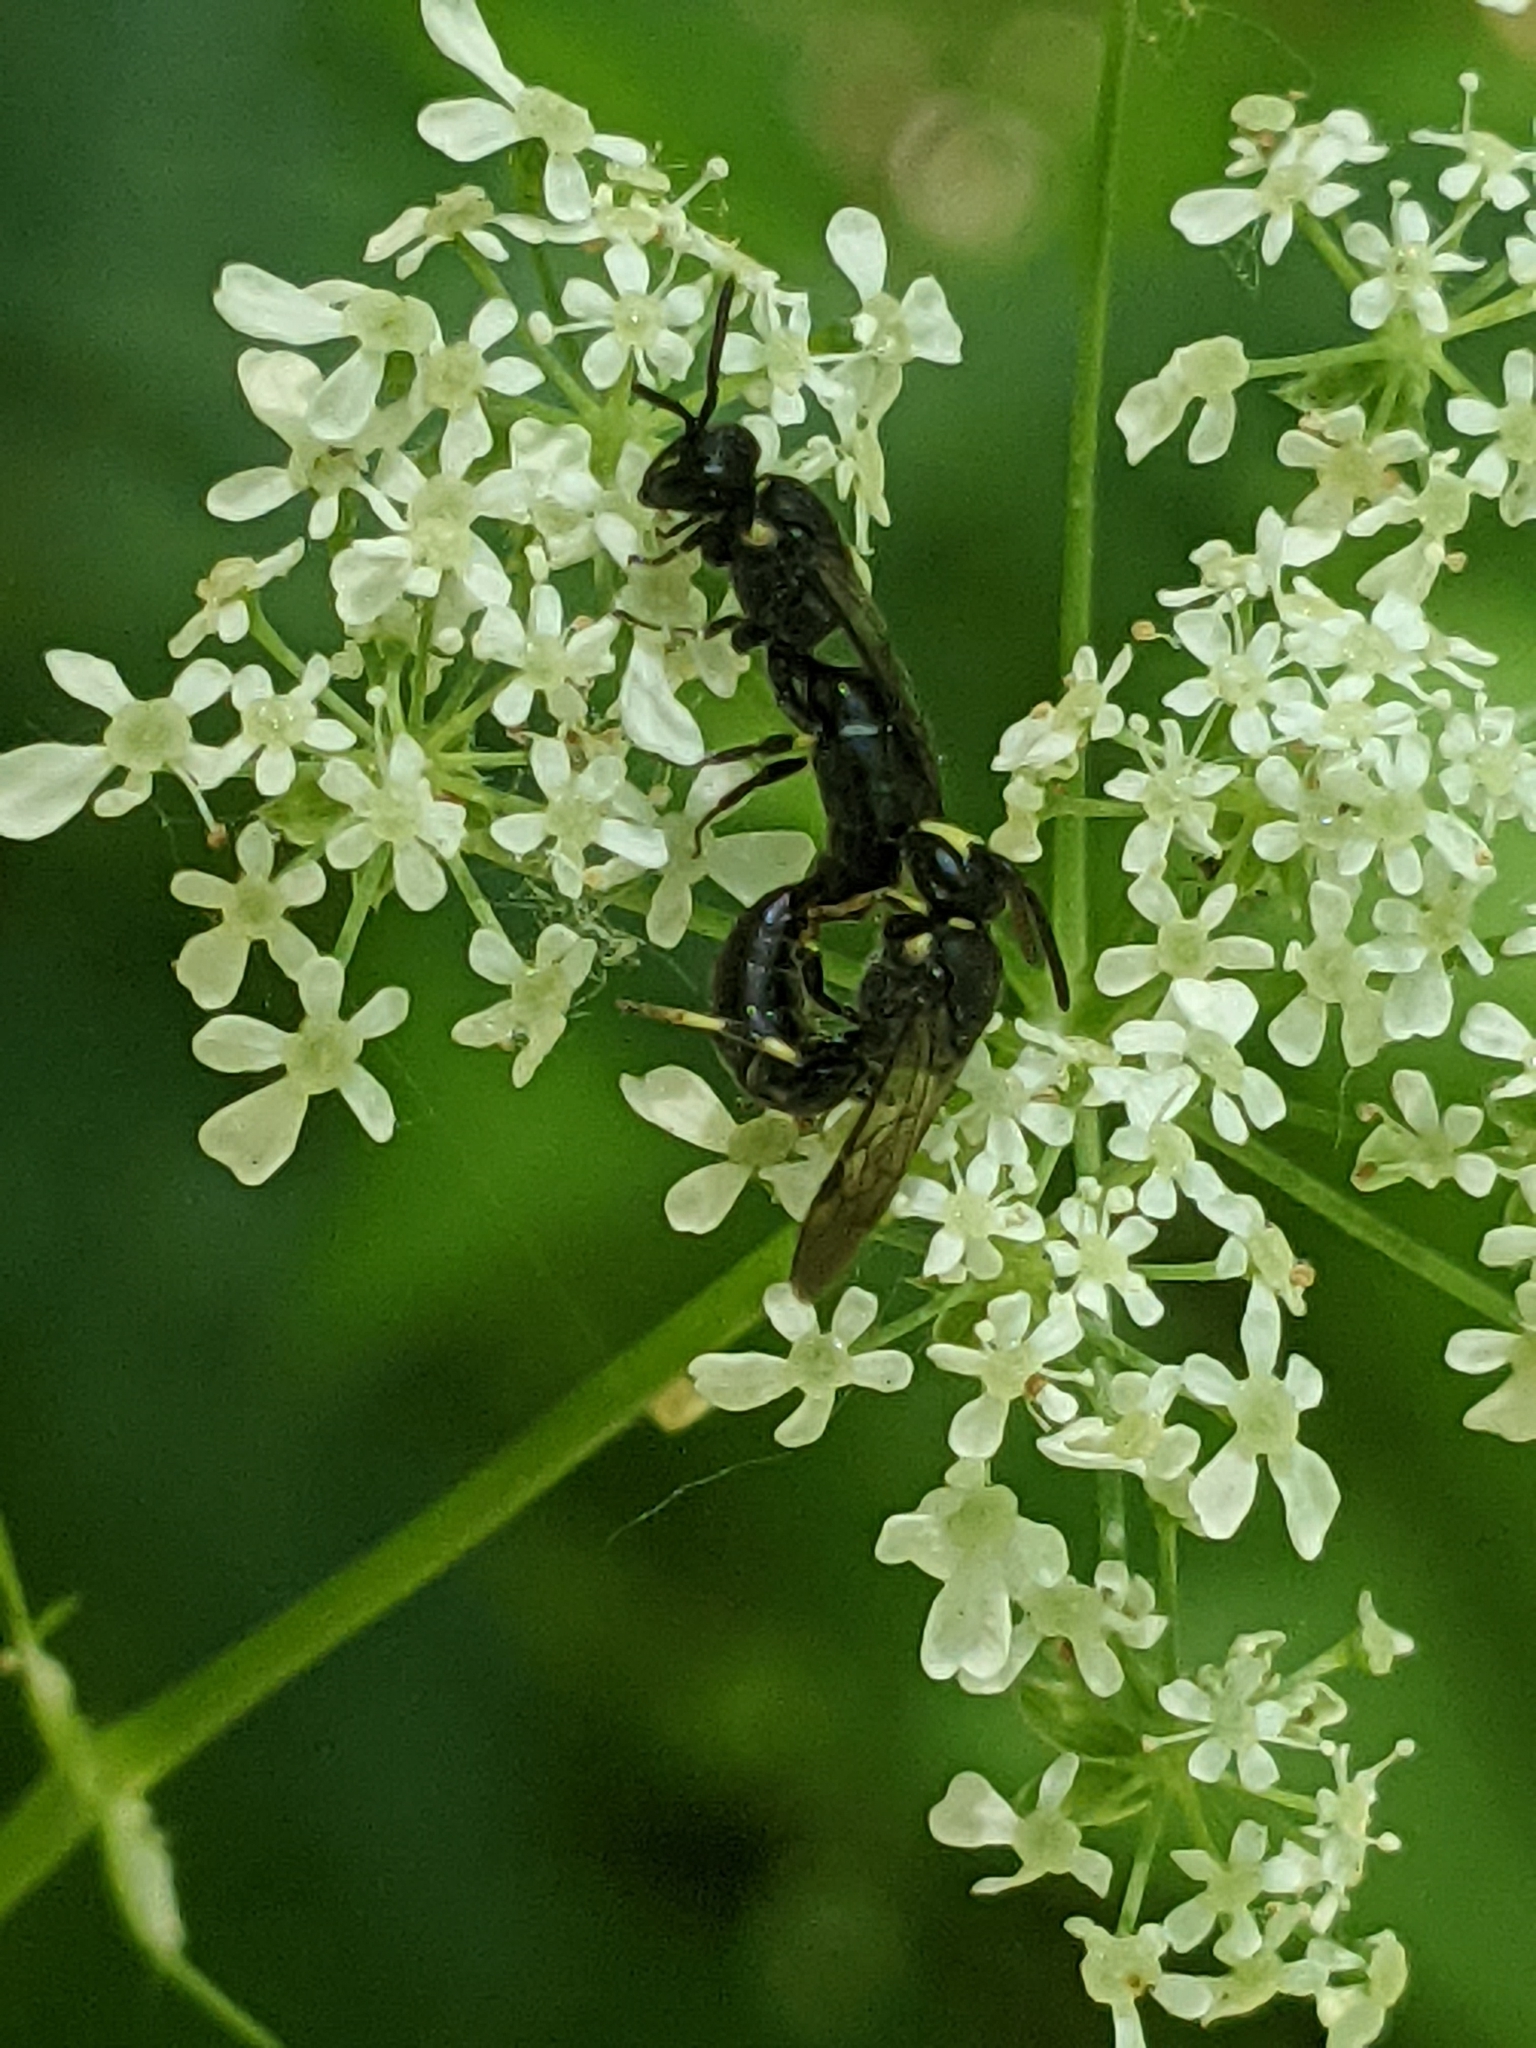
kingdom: Animalia
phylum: Arthropoda
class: Insecta
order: Hymenoptera
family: Colletidae
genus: Hylaeus
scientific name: Hylaeus modestus
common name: Yellow-faced bee
